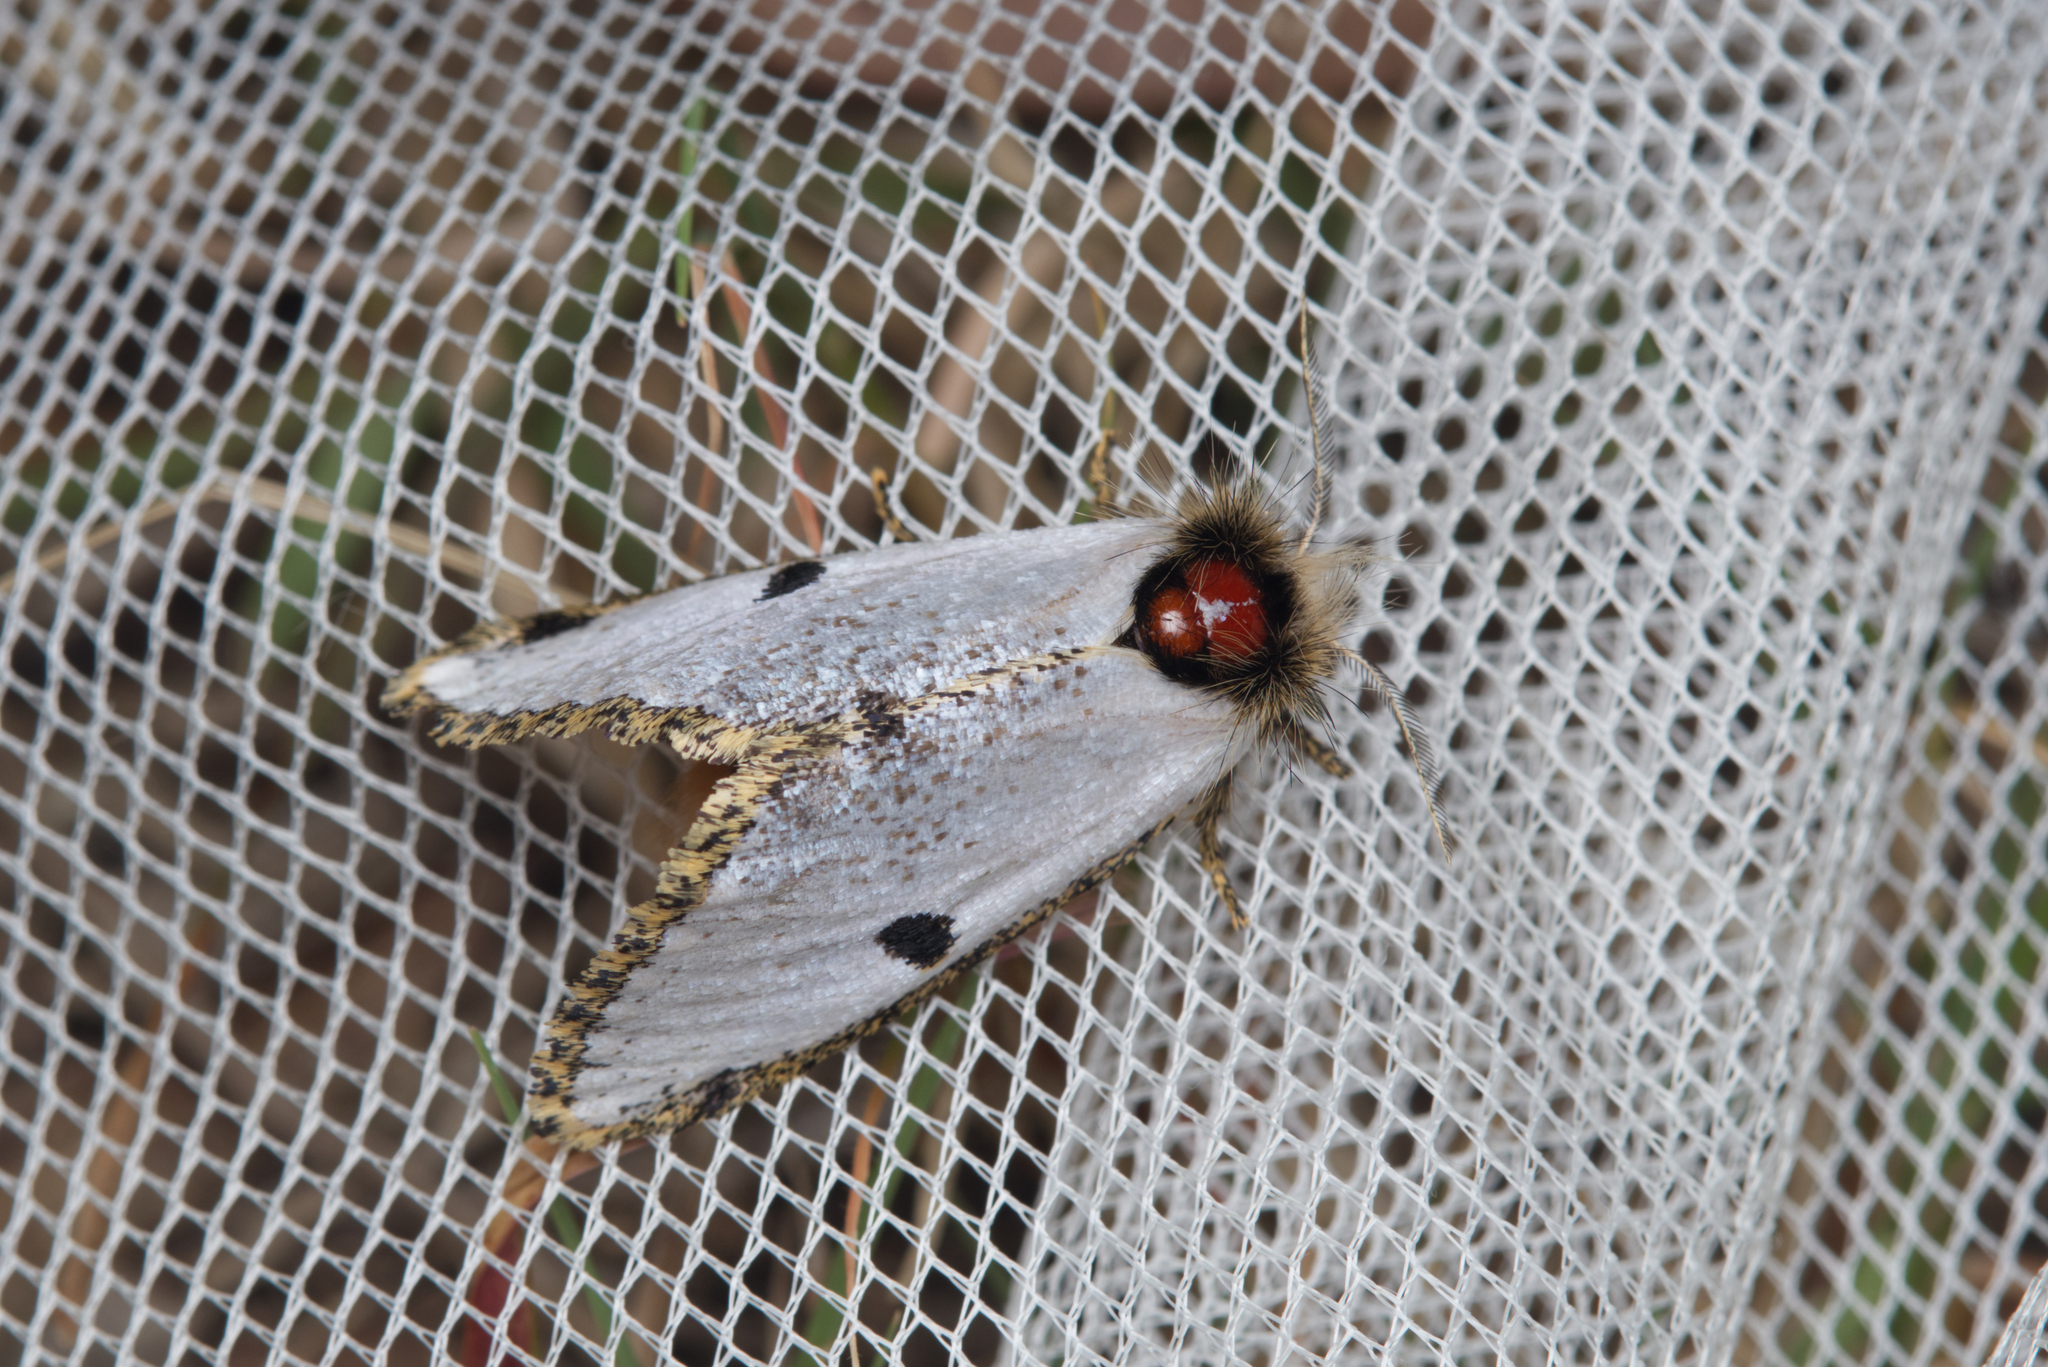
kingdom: Animalia
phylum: Arthropoda
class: Insecta
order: Lepidoptera
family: Notodontidae
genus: Epicoma
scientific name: Epicoma melanospila
